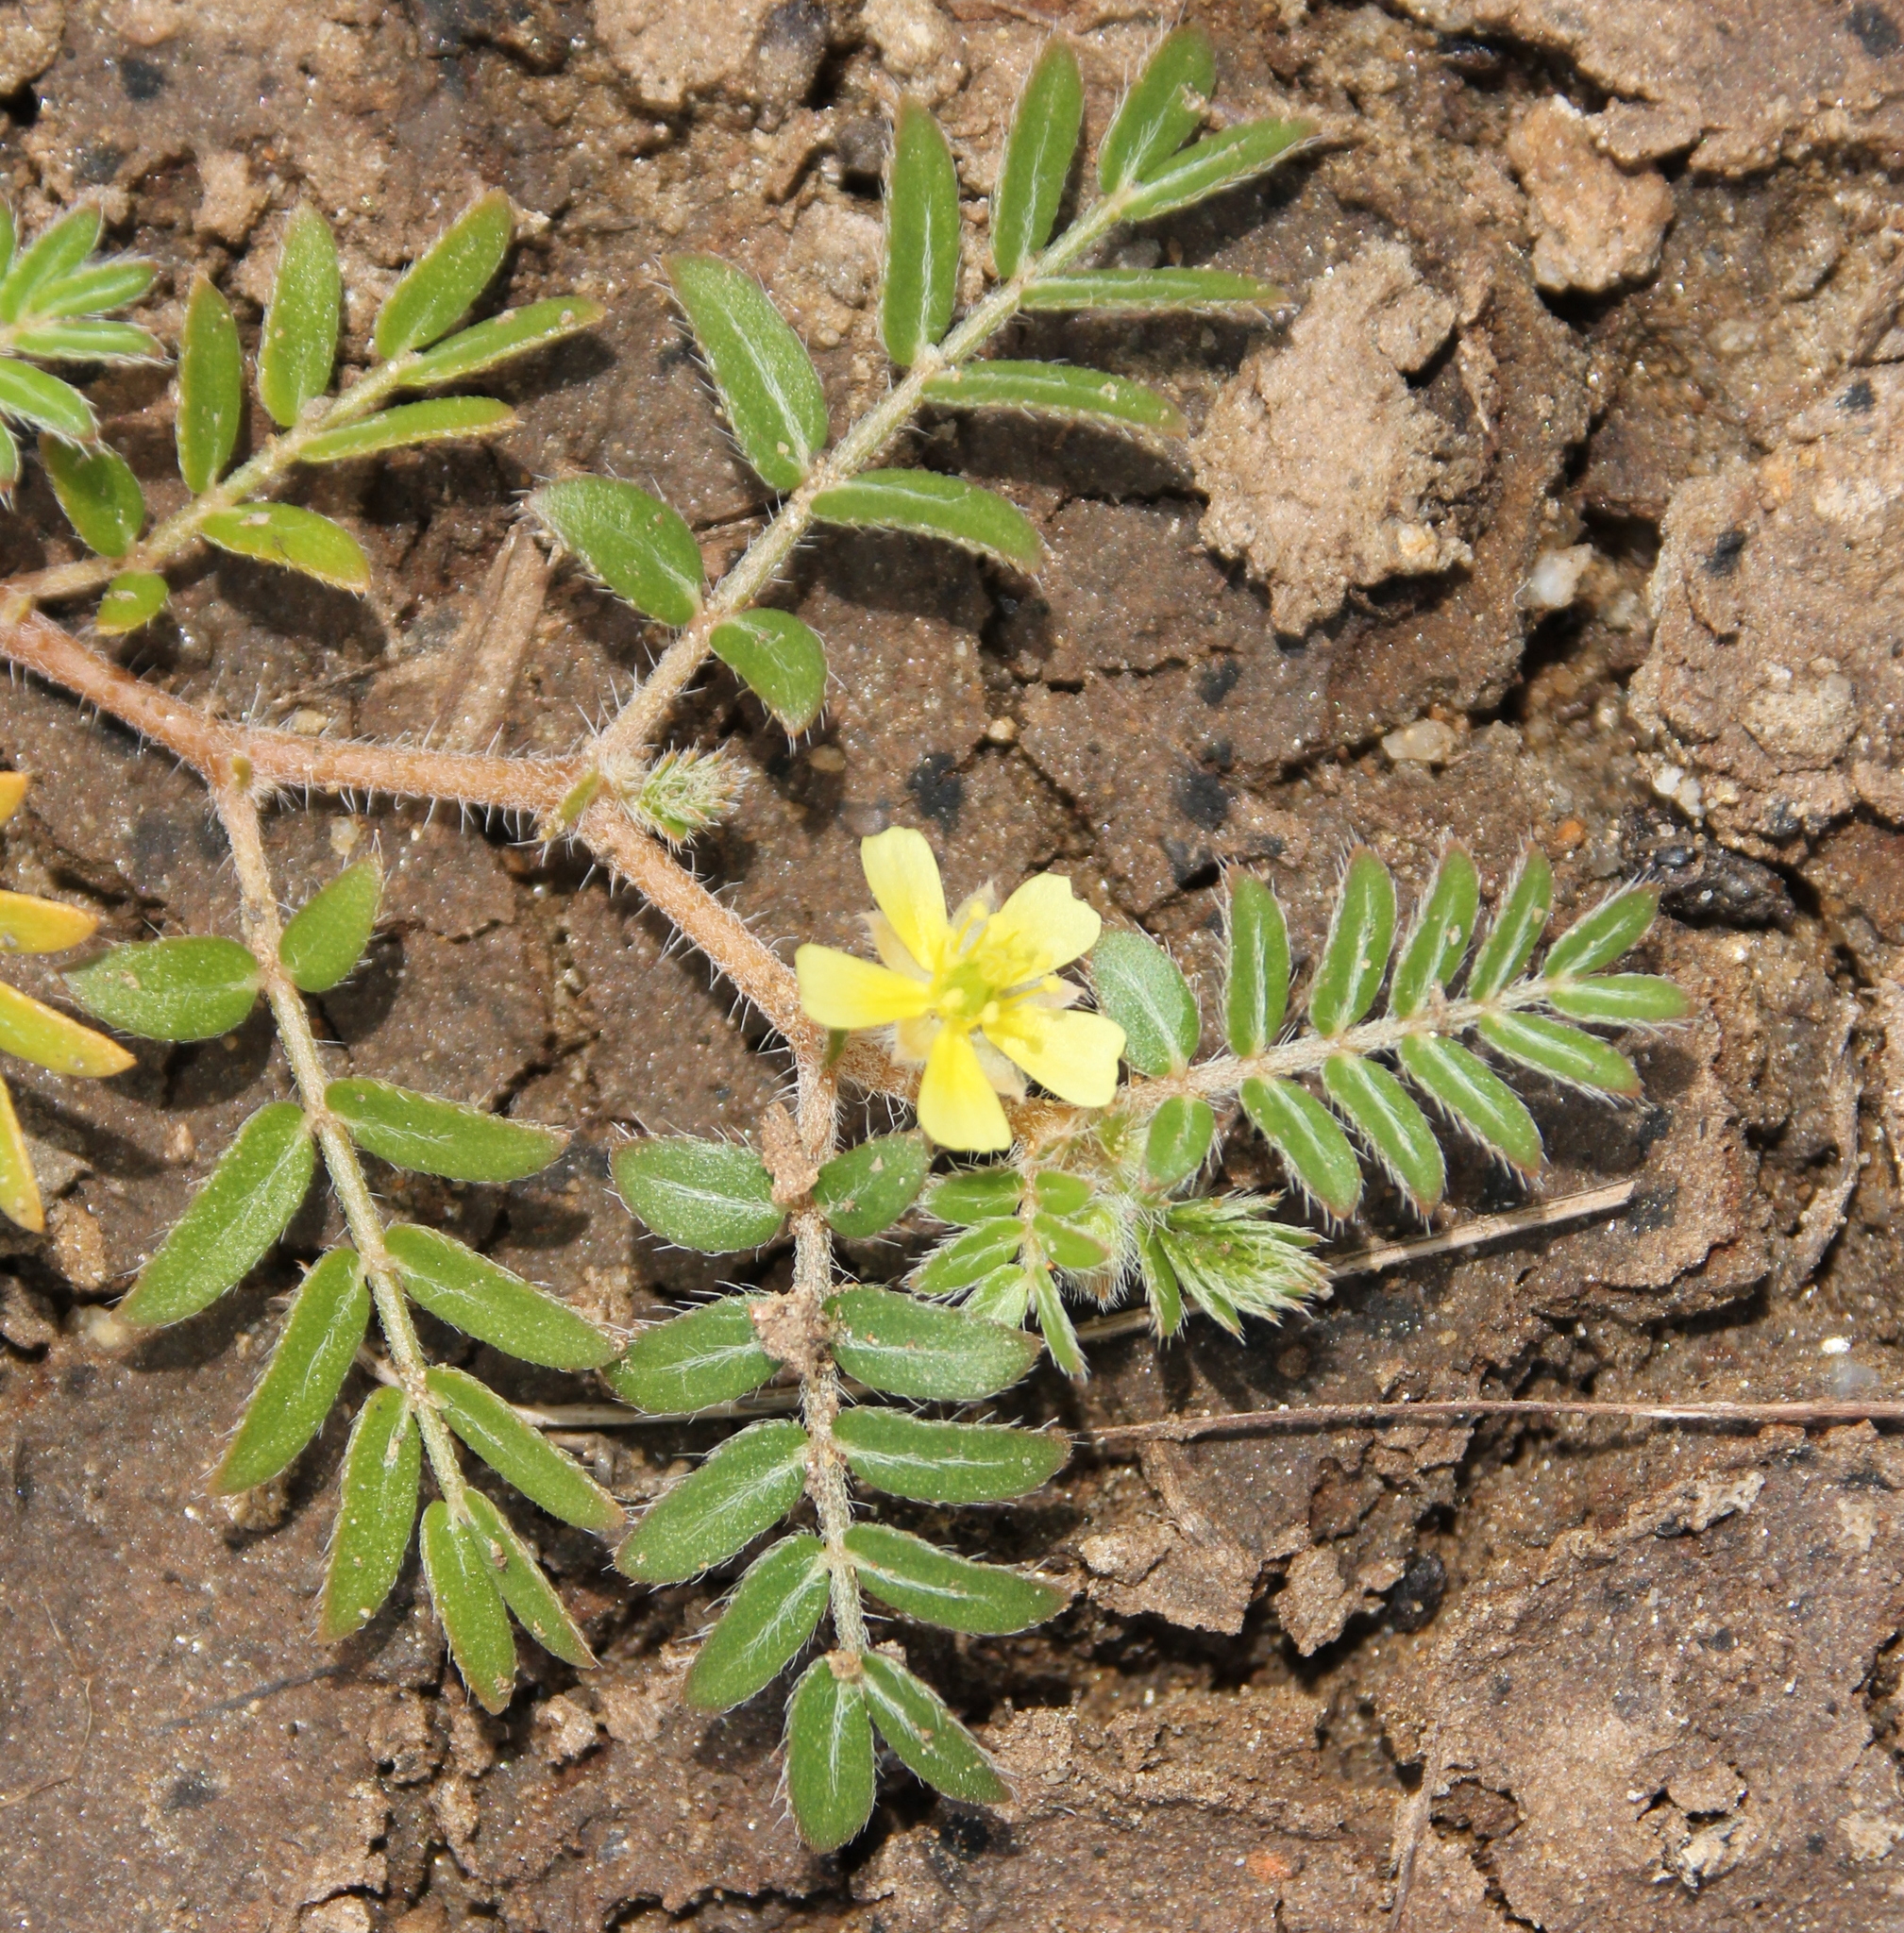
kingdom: Plantae
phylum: Tracheophyta
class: Magnoliopsida
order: Zygophyllales
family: Zygophyllaceae
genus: Tribulus
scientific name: Tribulus terrestris
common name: Puncturevine
